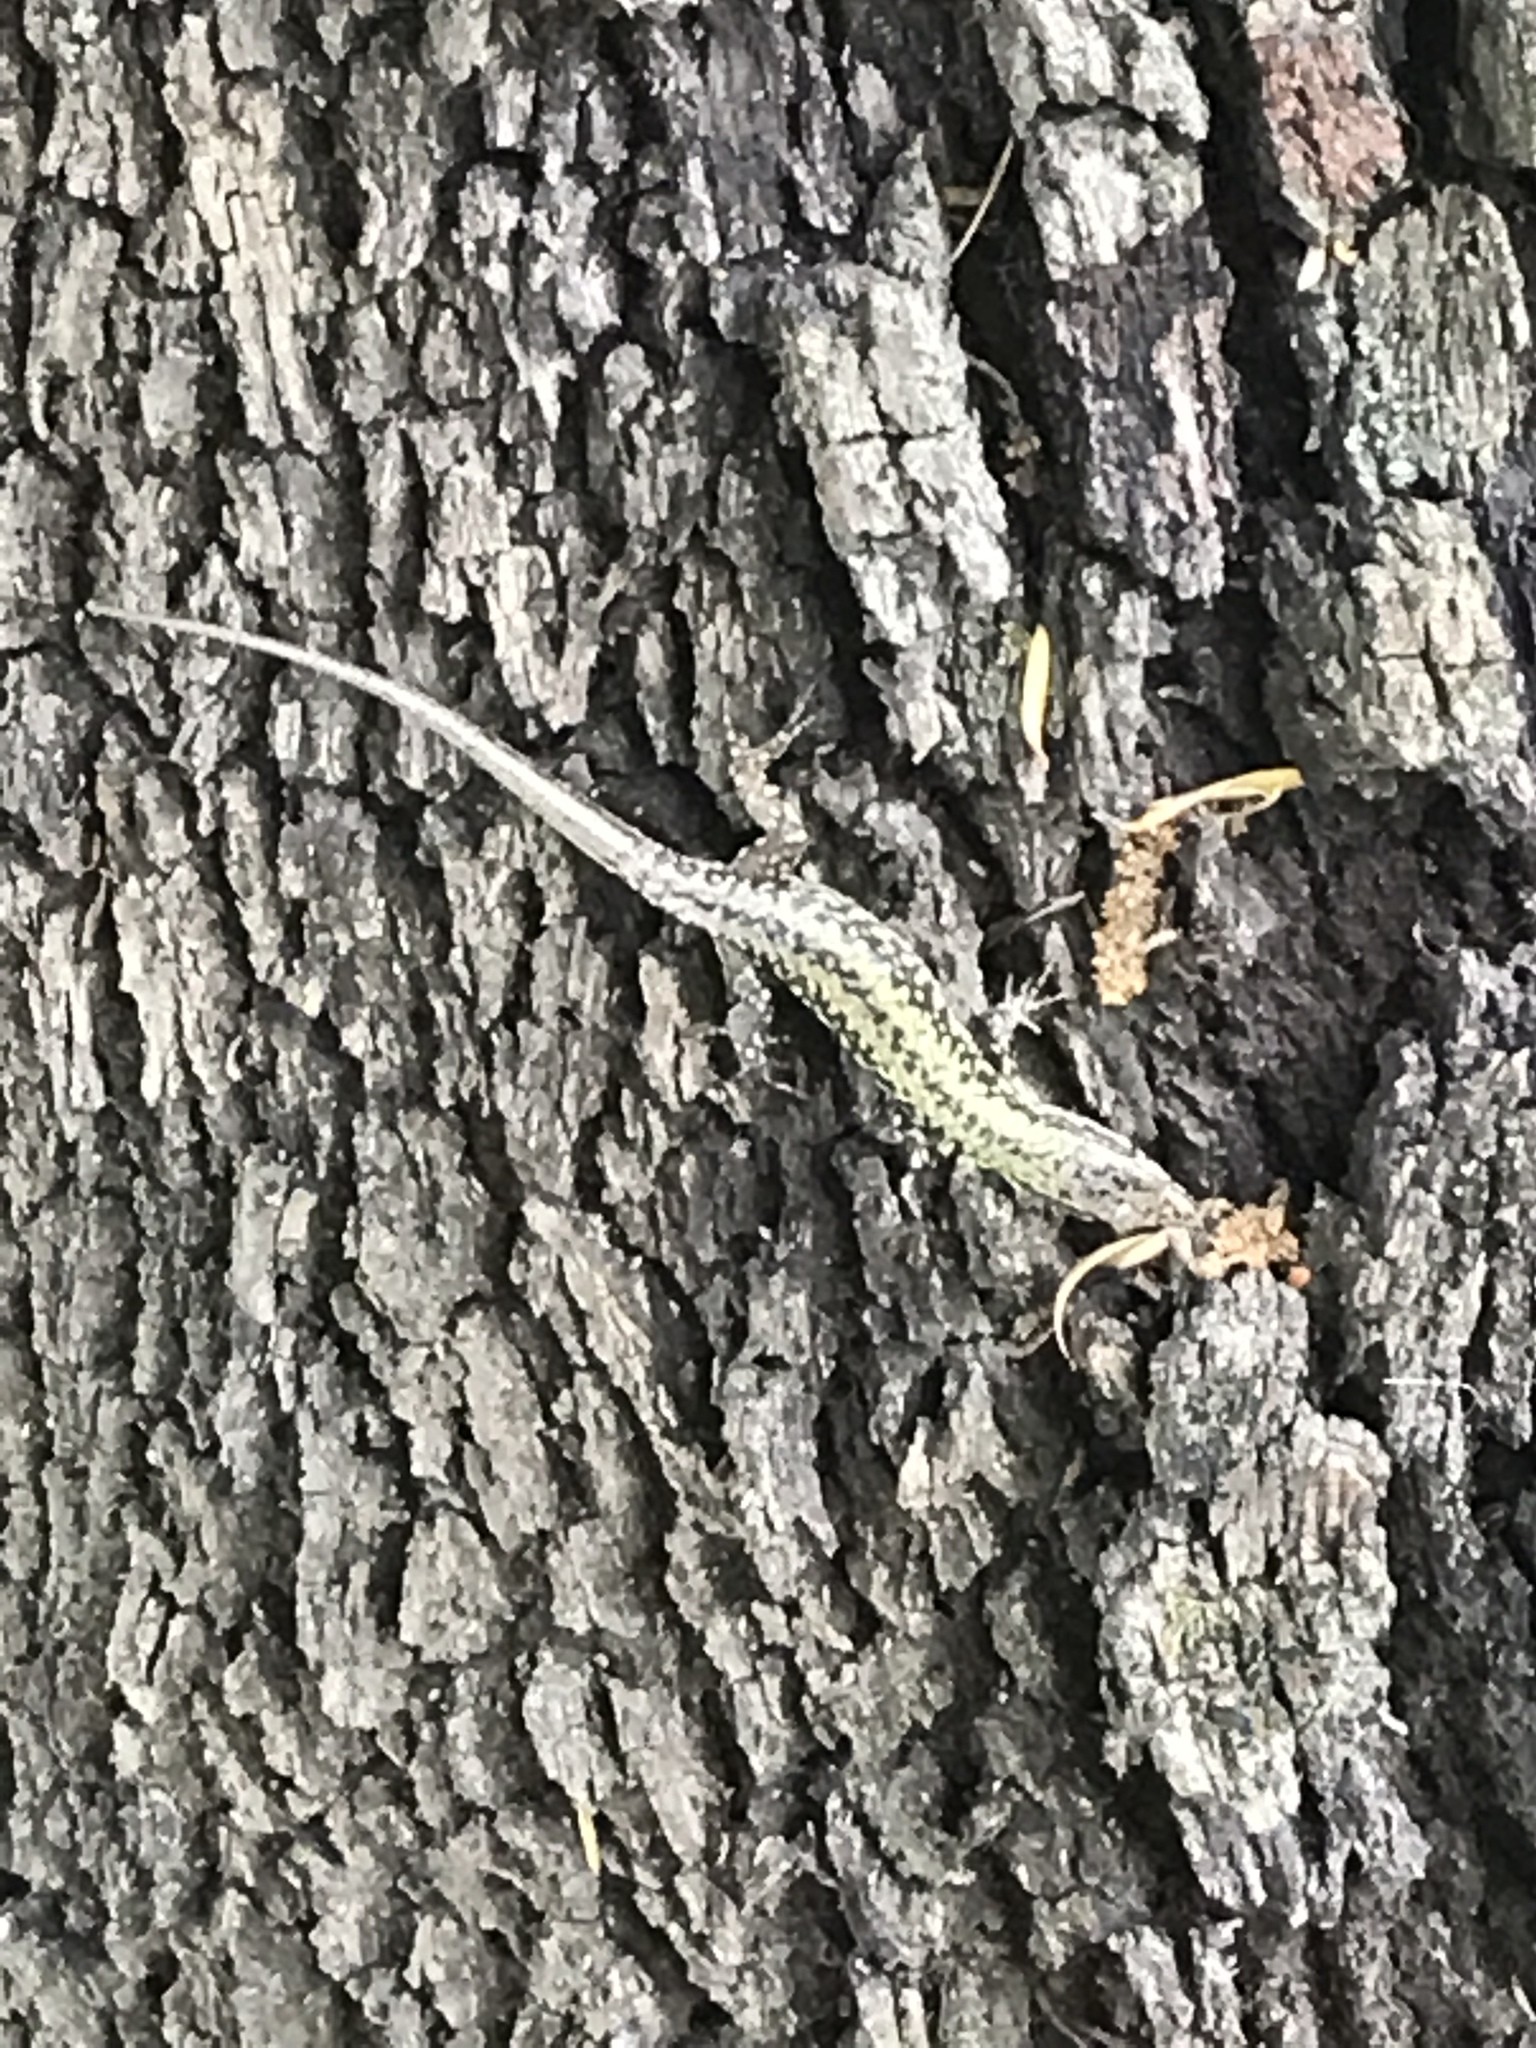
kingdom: Animalia
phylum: Chordata
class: Squamata
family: Lacertidae
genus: Podarcis
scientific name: Podarcis muralis
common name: Common wall lizard
